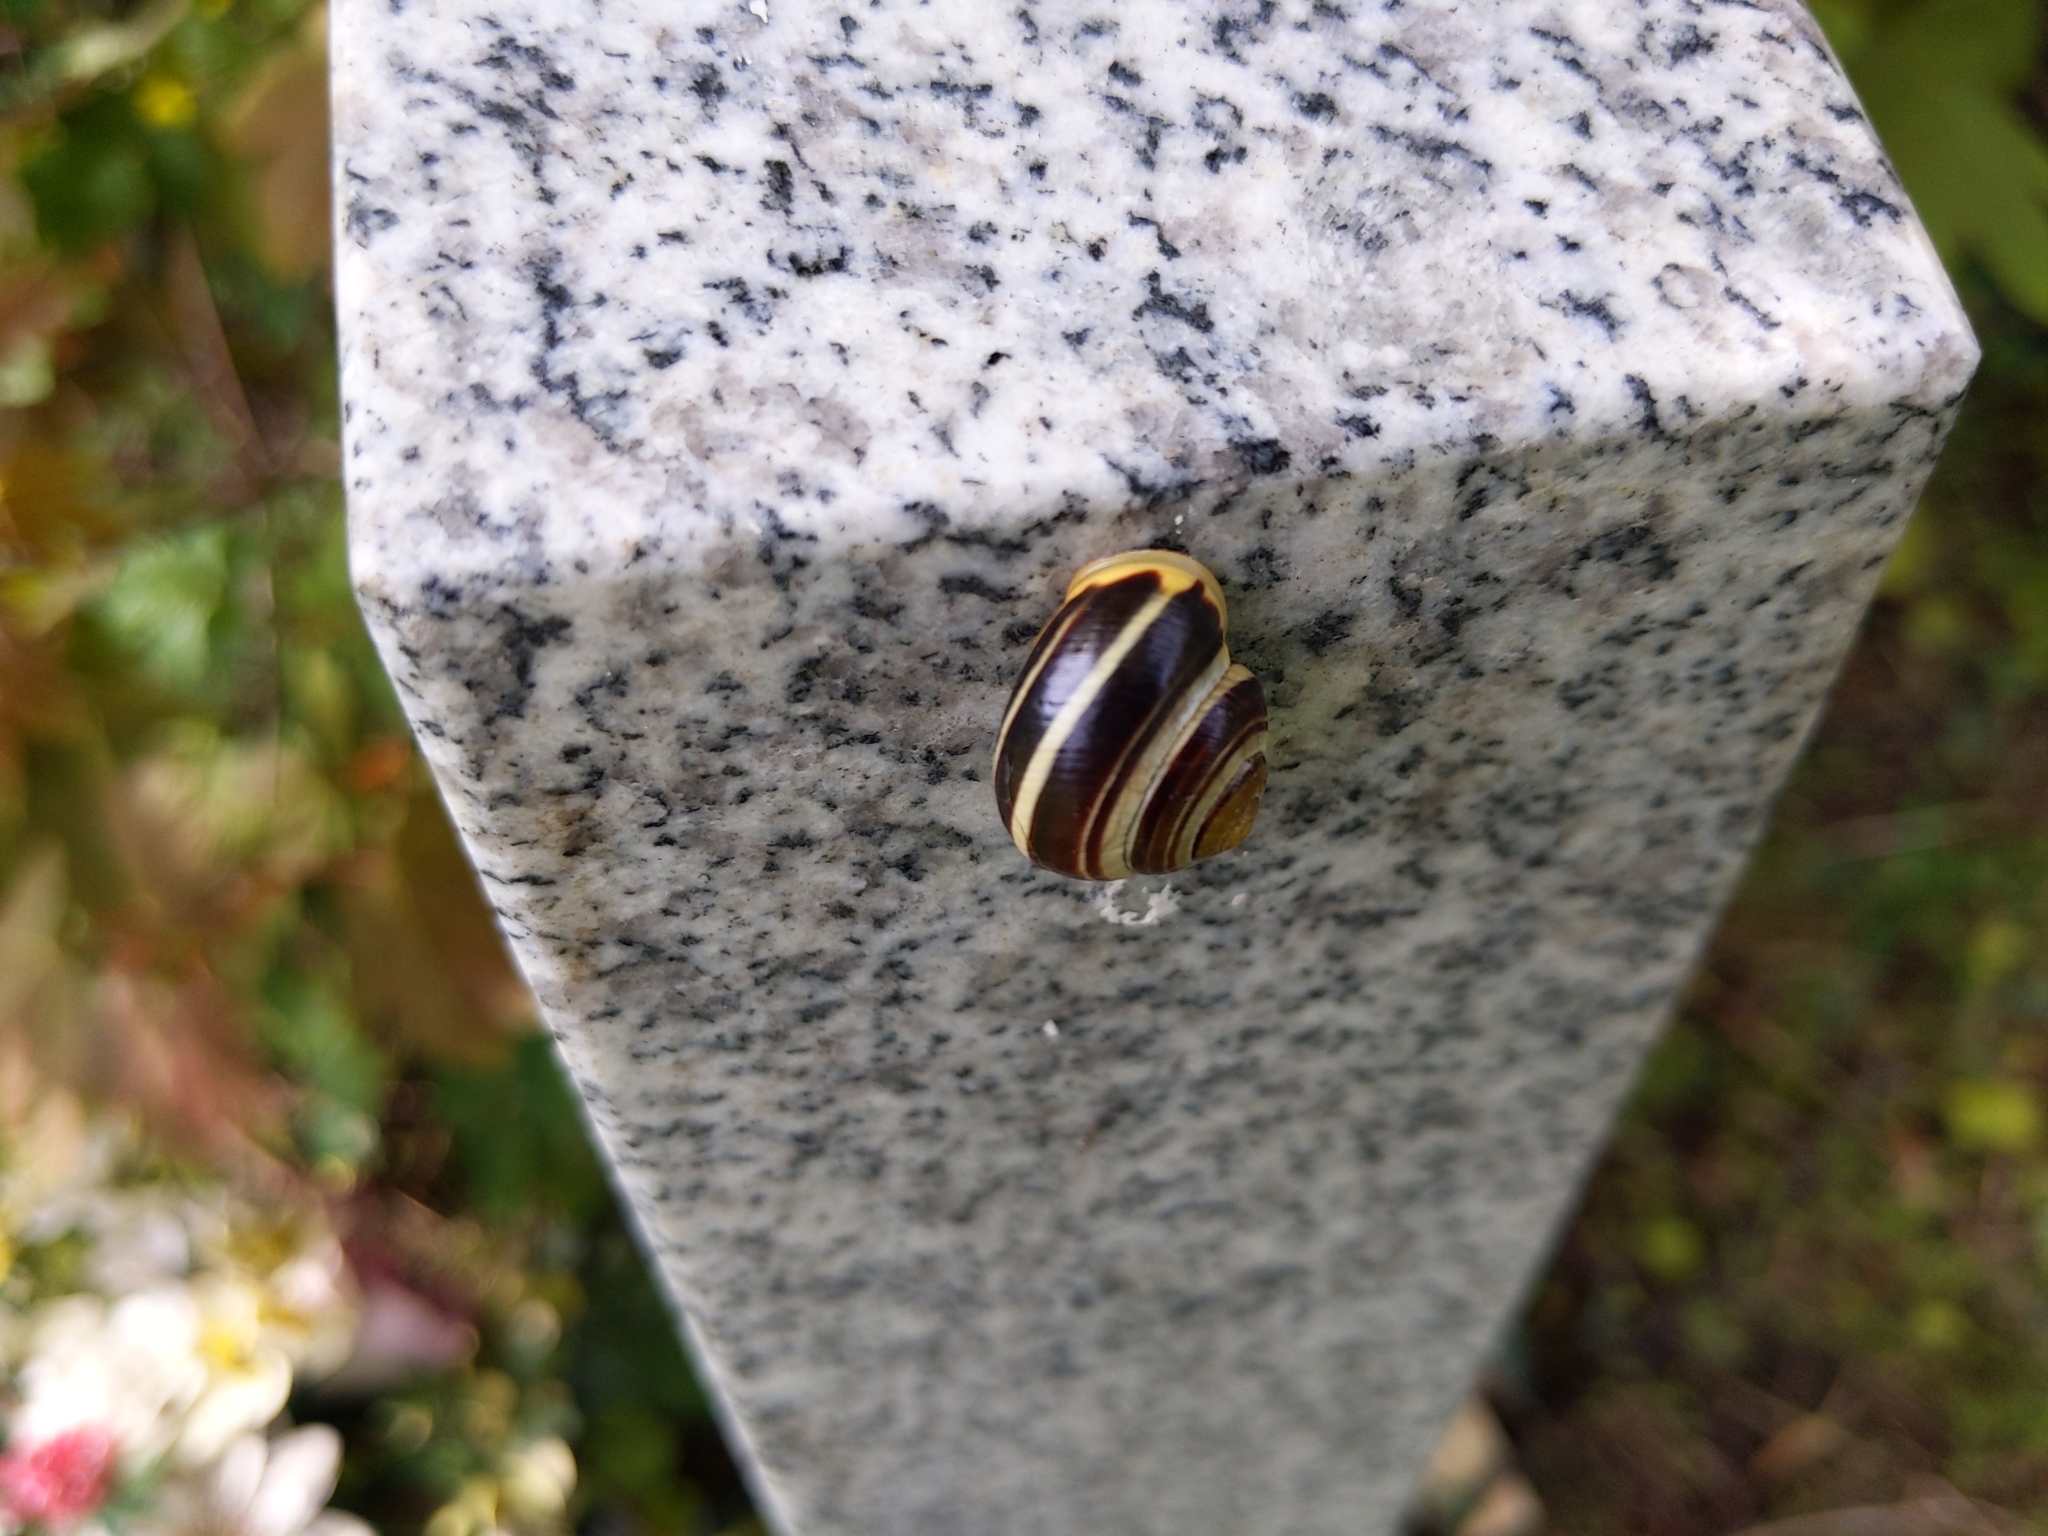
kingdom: Animalia
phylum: Mollusca
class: Gastropoda
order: Stylommatophora
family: Helicidae
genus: Cepaea
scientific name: Cepaea hortensis
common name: White-lip gardensnail
